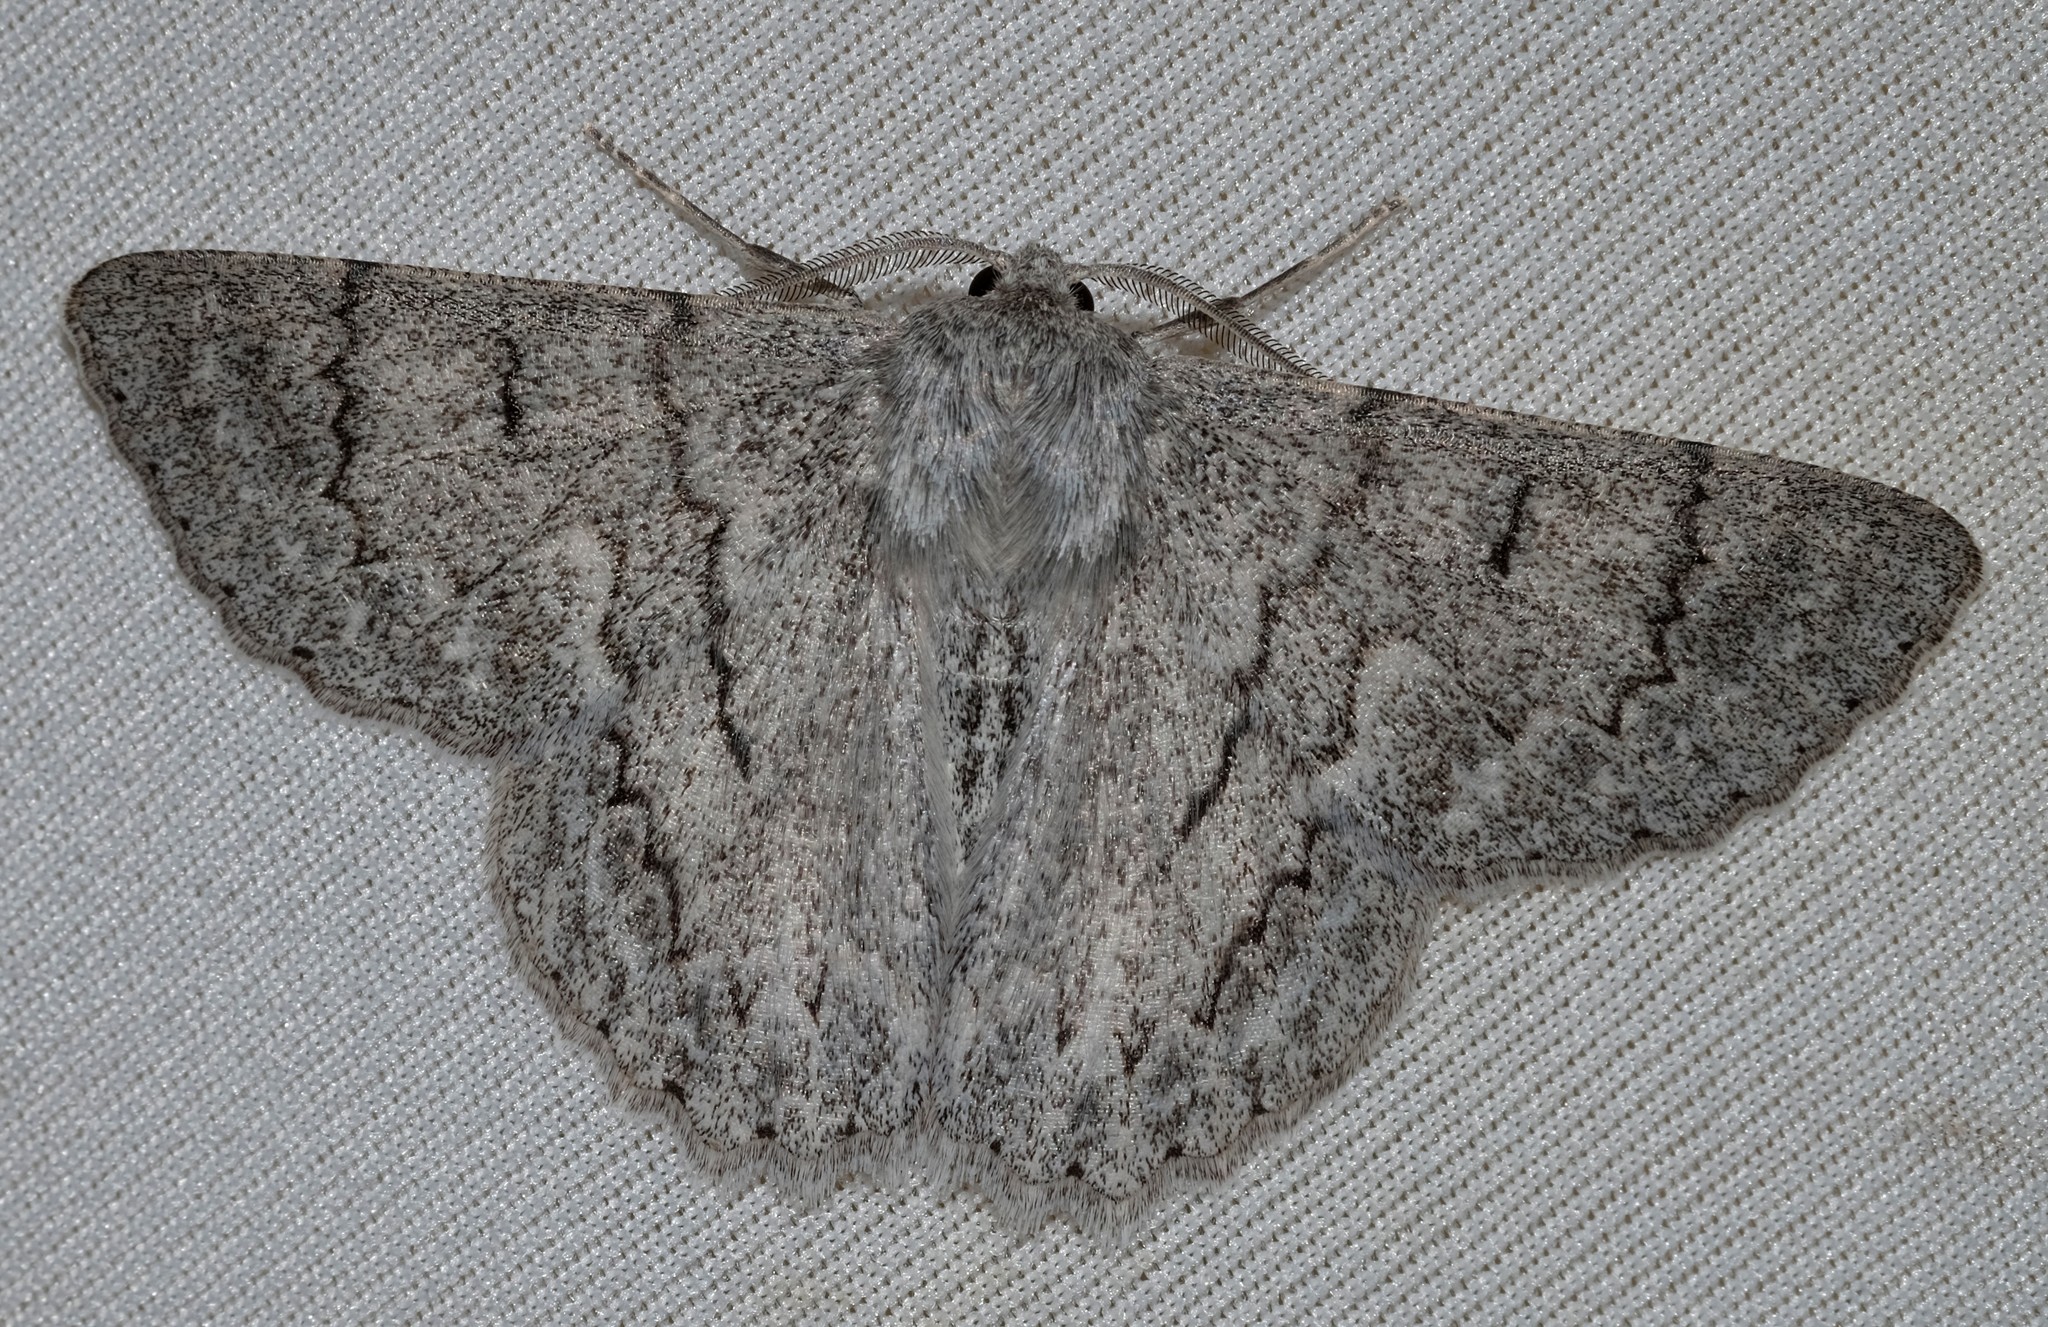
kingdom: Animalia
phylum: Arthropoda
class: Insecta
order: Lepidoptera
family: Geometridae
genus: Crypsiphona
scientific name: Crypsiphona ocultaria
